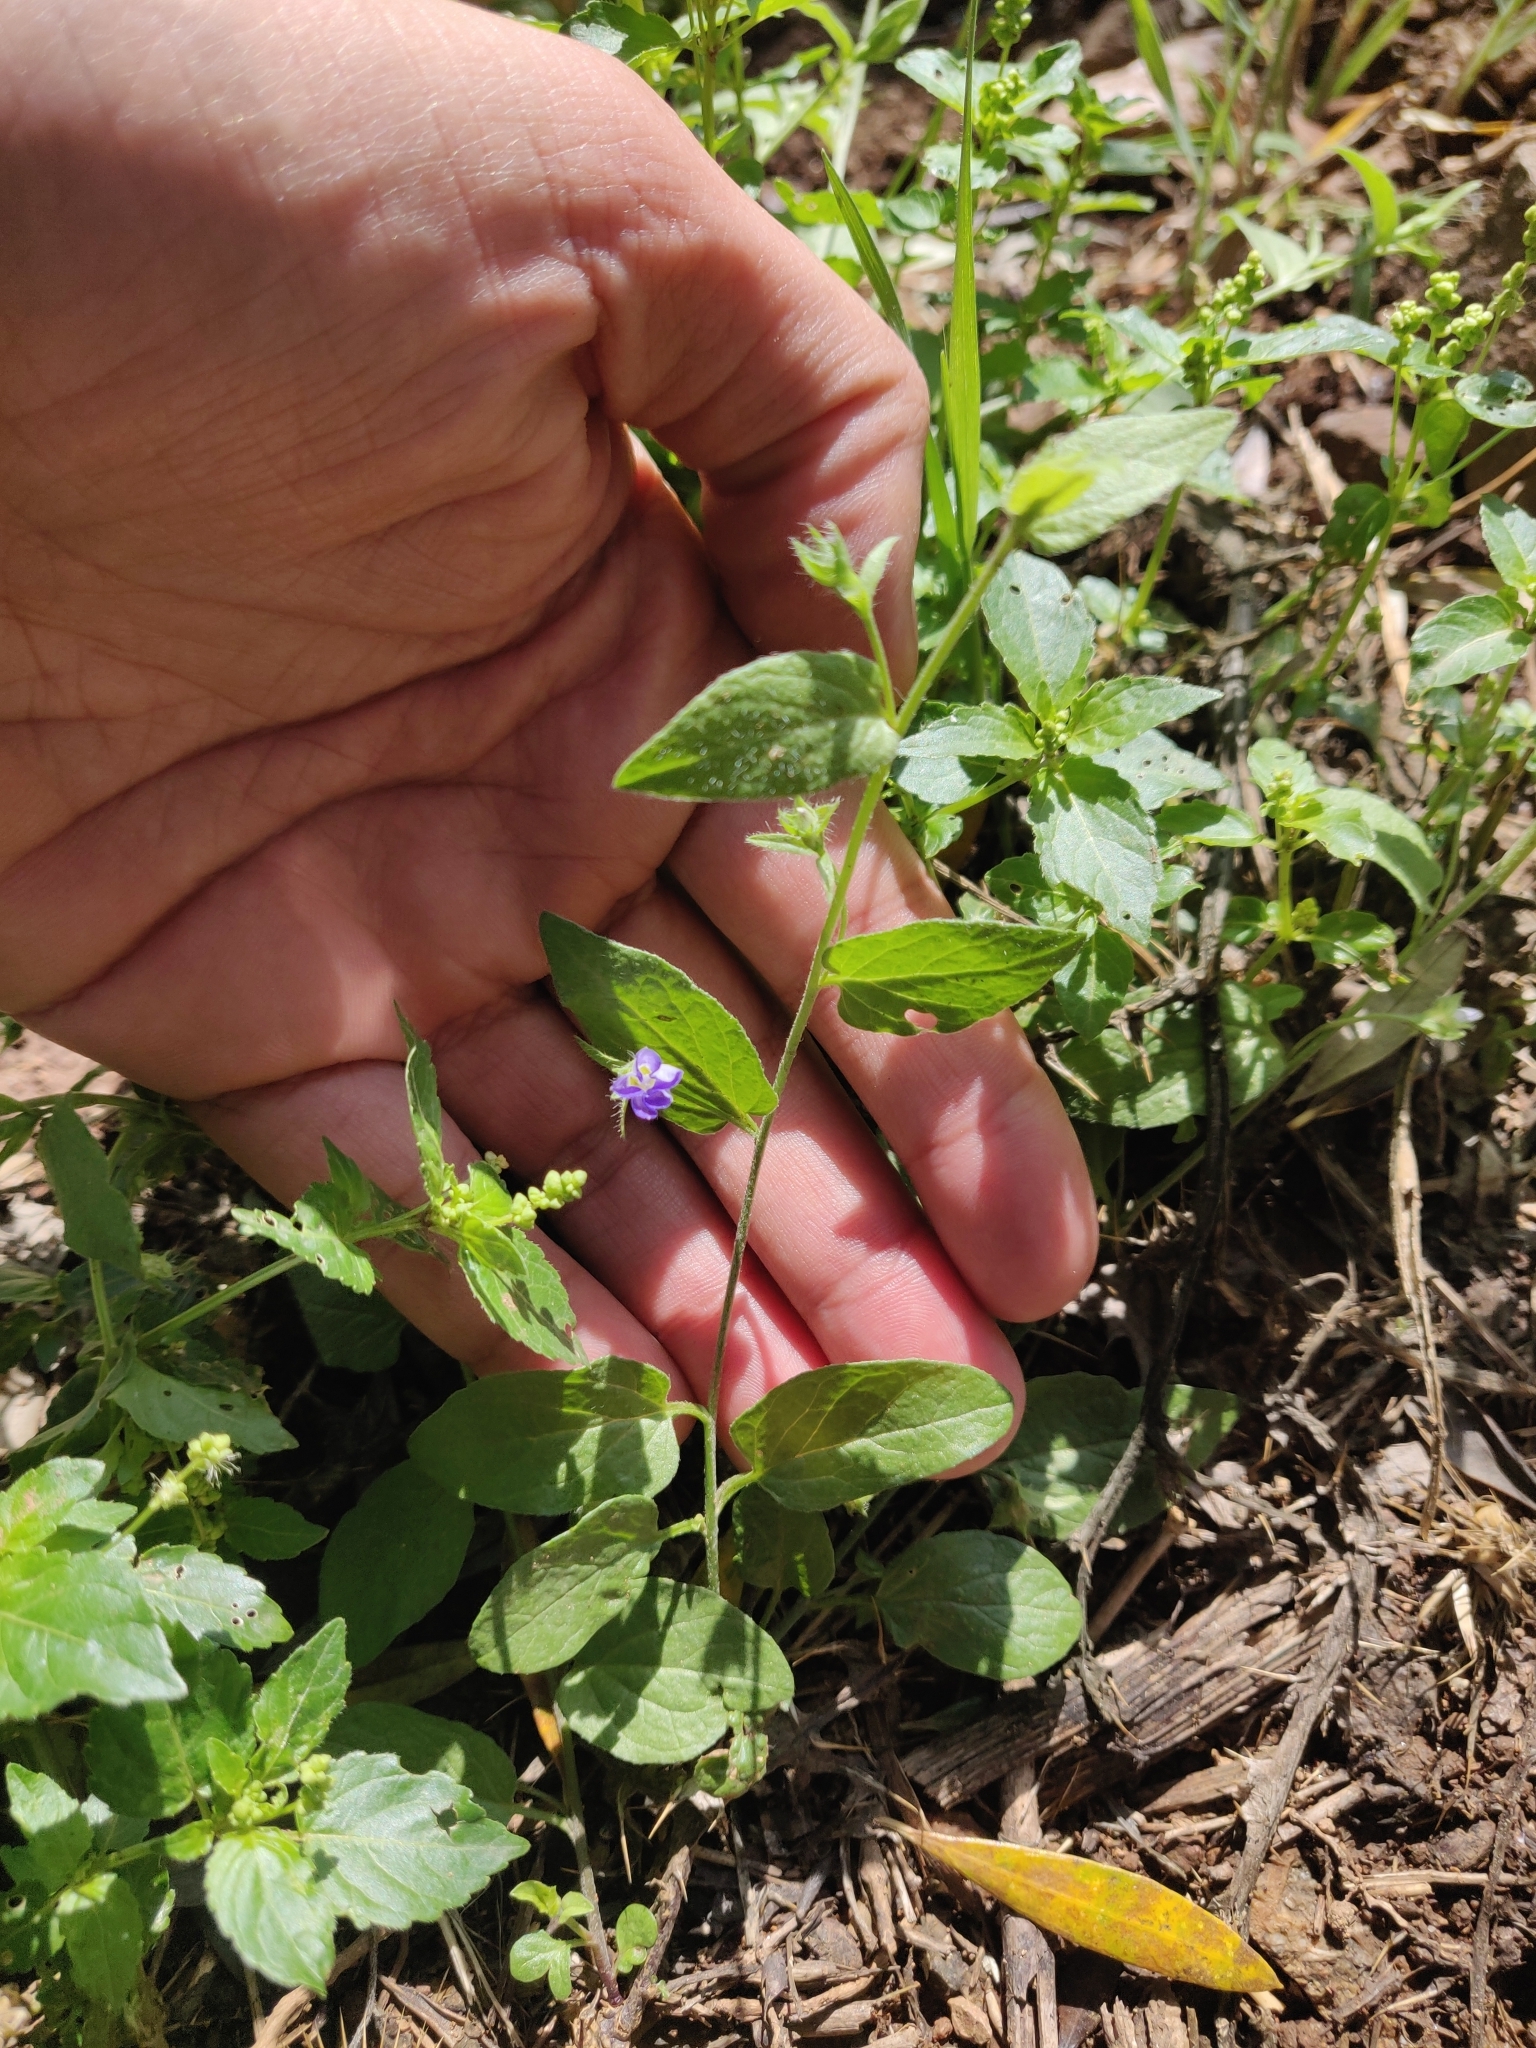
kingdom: Plantae
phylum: Tracheophyta
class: Magnoliopsida
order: Solanales
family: Convolvulaceae
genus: Convolvulus
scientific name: Convolvulus siculus
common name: Small blue-convolvulus
